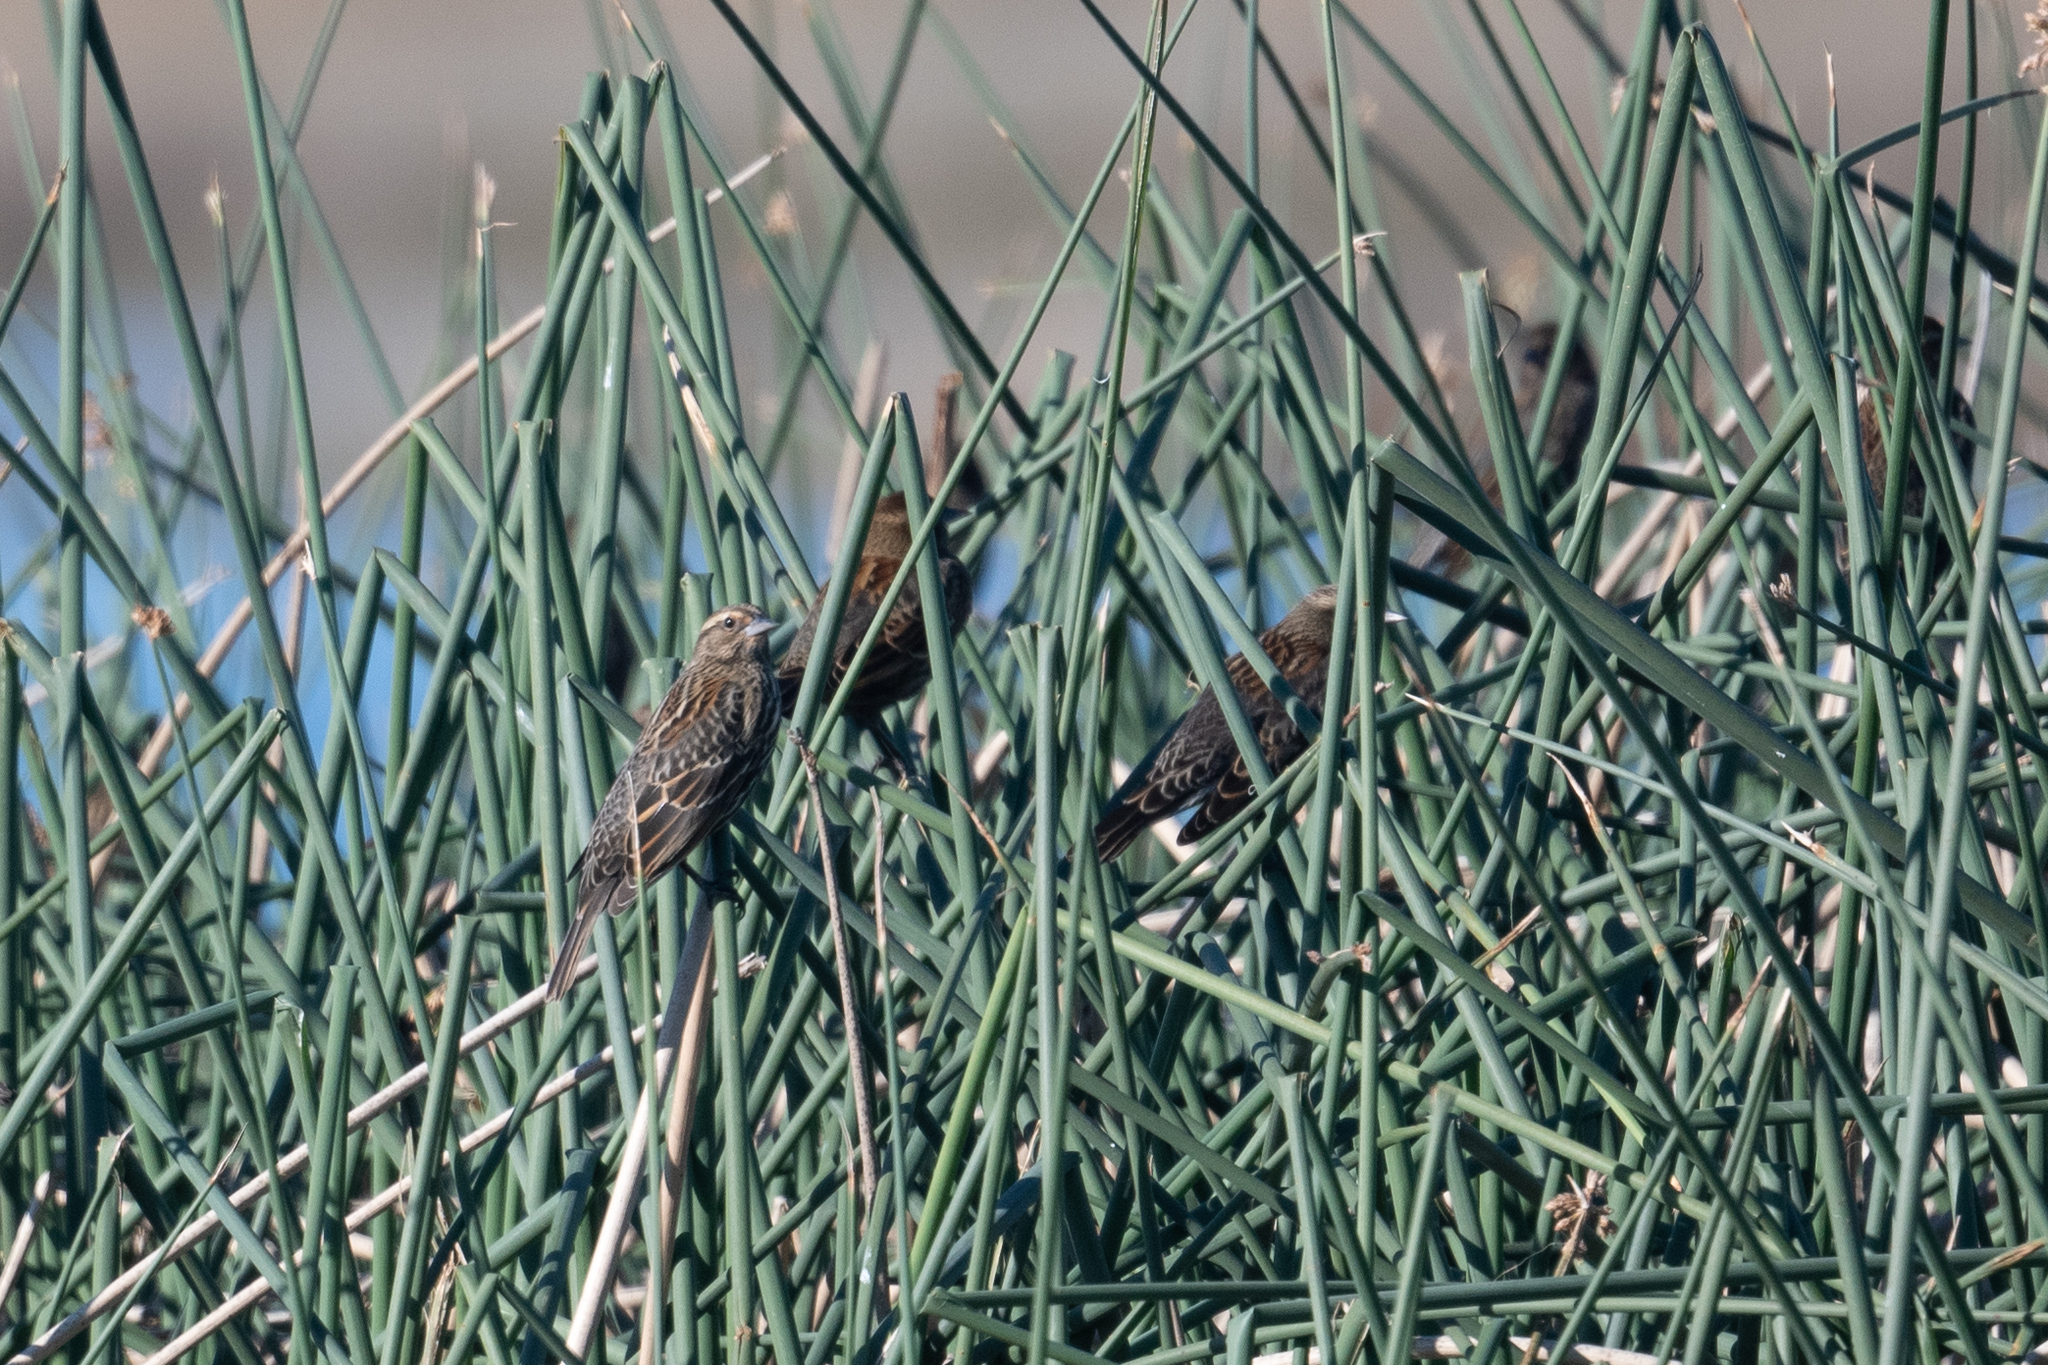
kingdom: Animalia
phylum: Chordata
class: Aves
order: Passeriformes
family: Icteridae
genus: Agelaius
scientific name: Agelaius phoeniceus
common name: Red-winged blackbird
